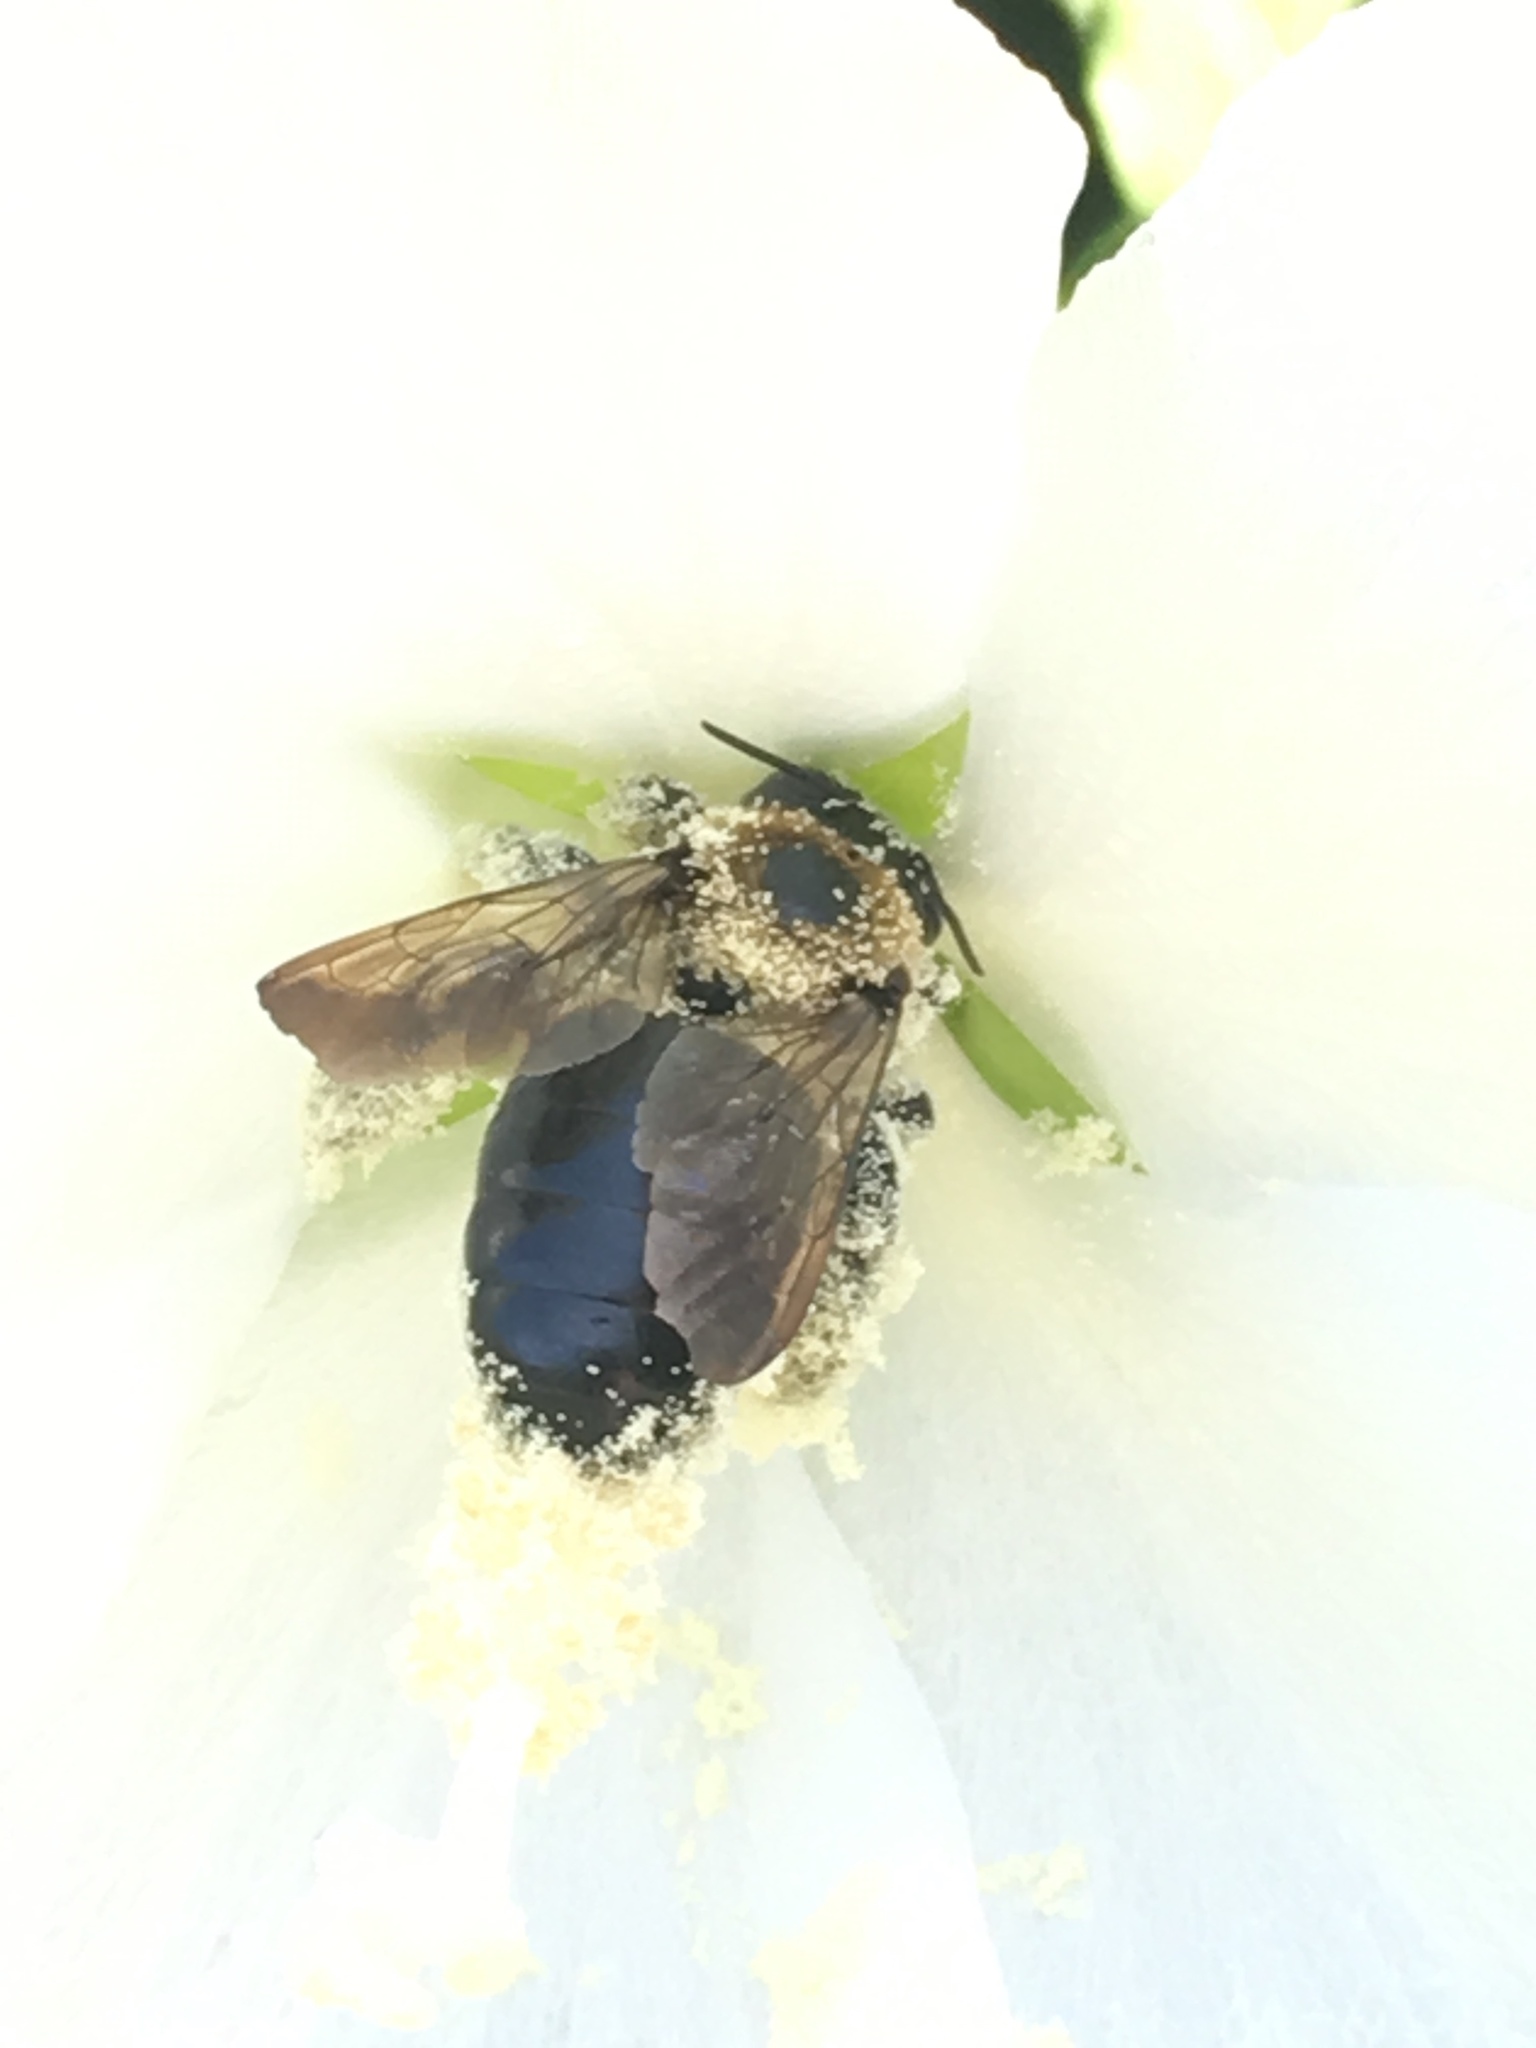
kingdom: Animalia
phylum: Arthropoda
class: Insecta
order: Hymenoptera
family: Apidae
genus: Xylocopa
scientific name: Xylocopa virginica
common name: Carpenter bee
